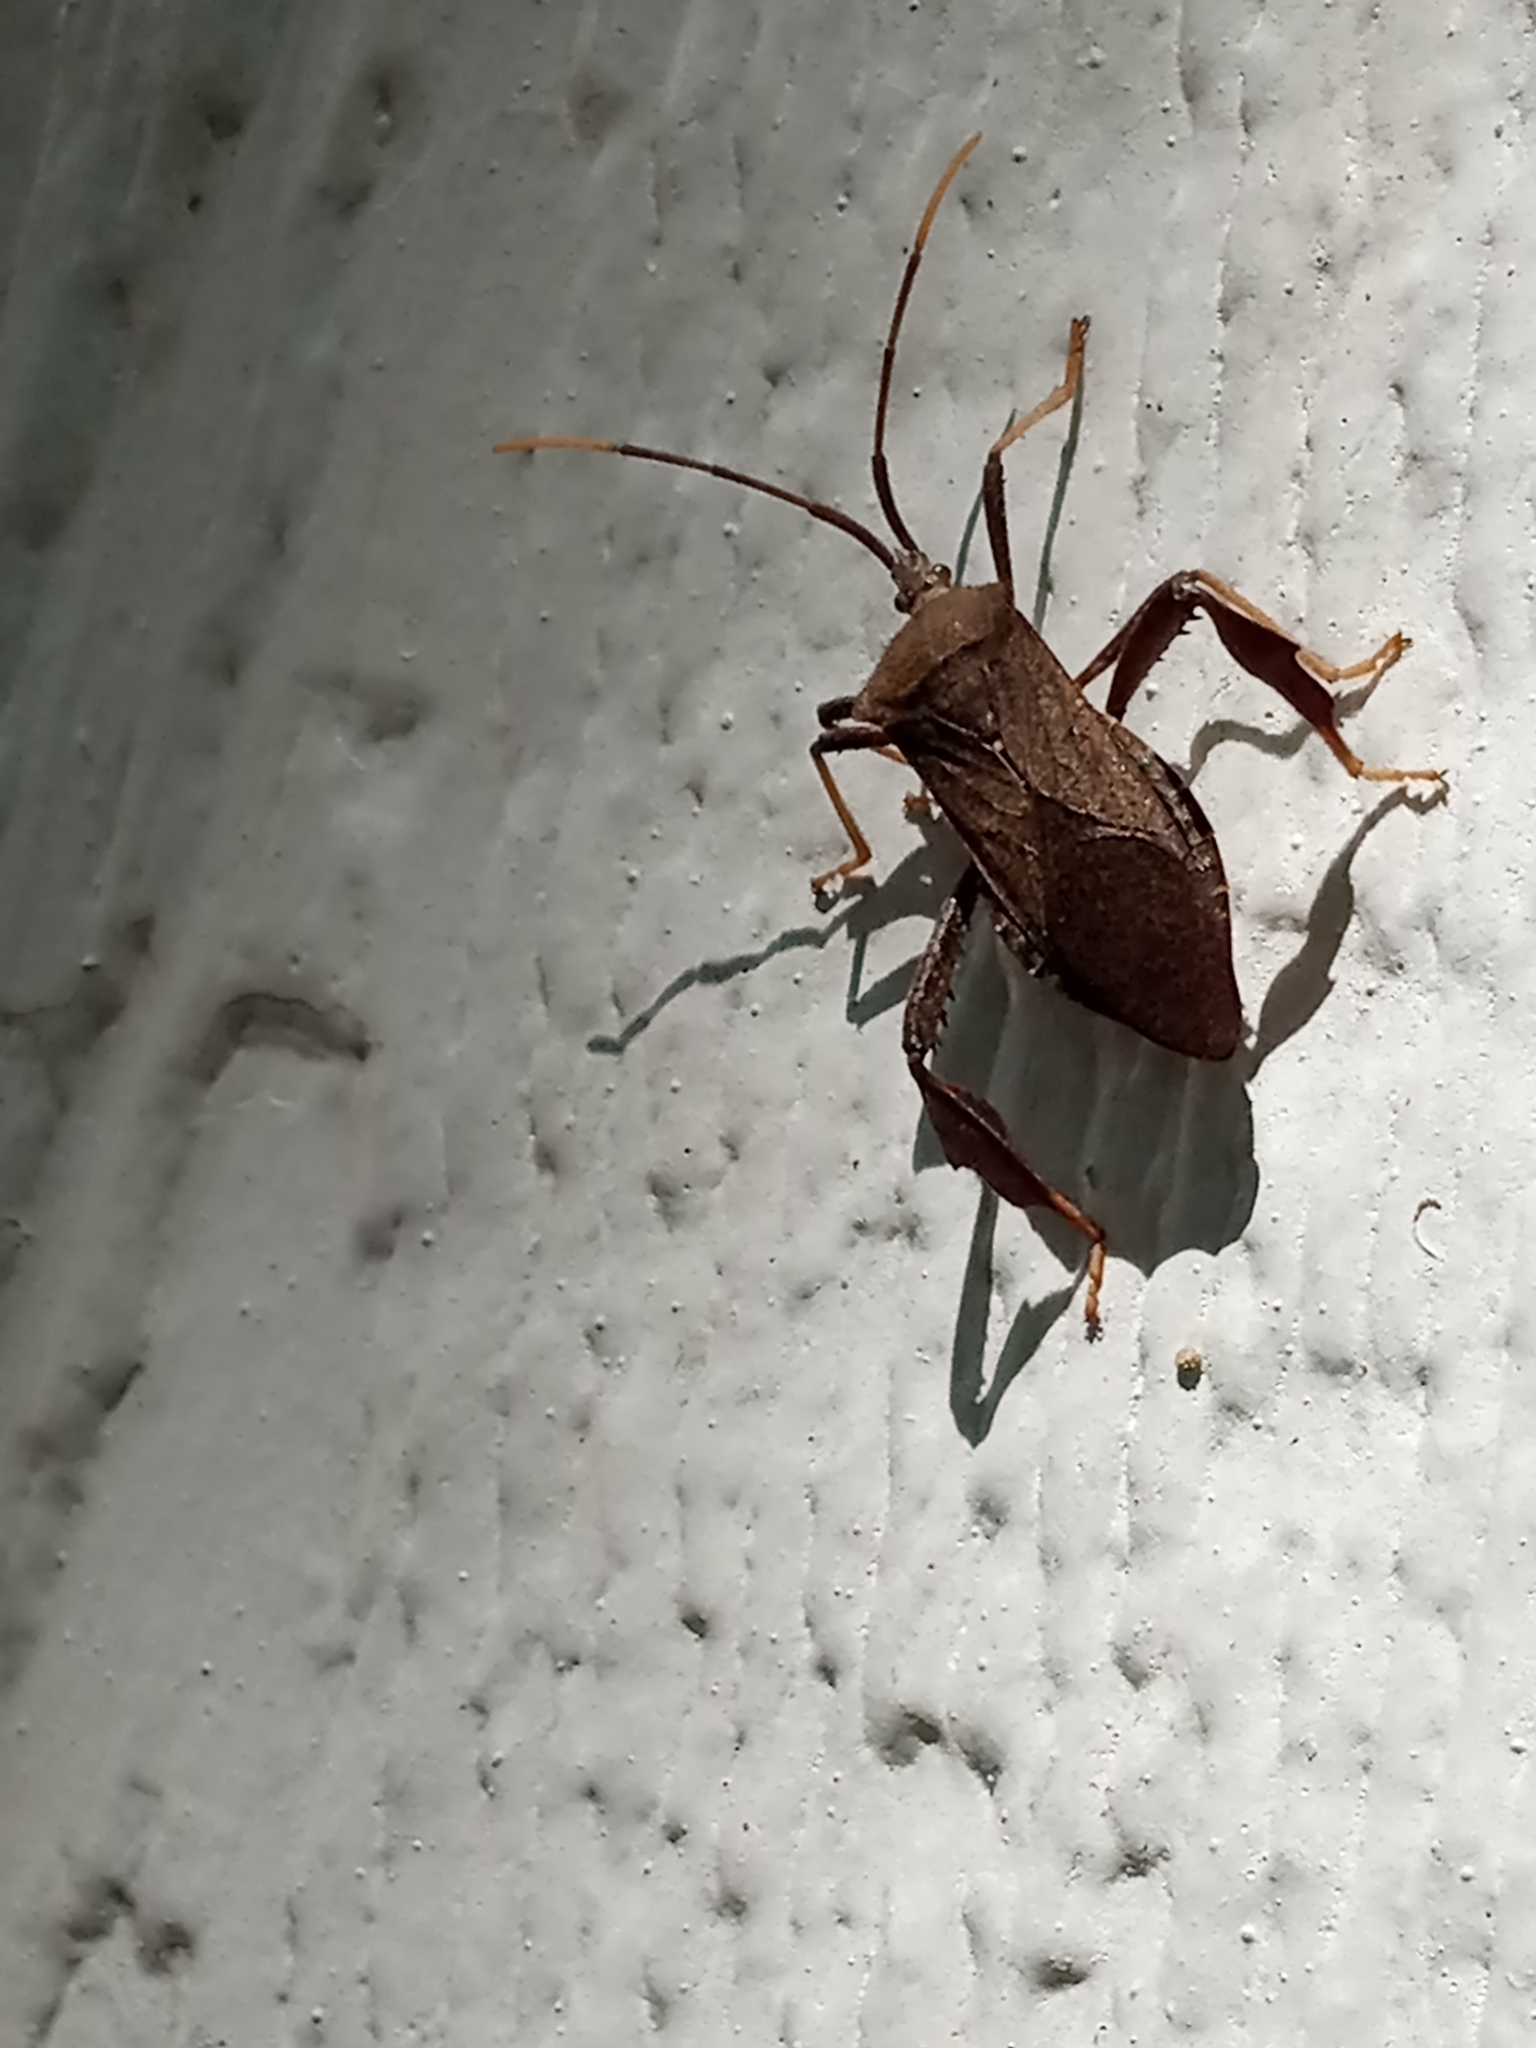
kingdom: Animalia
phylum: Arthropoda
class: Insecta
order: Hemiptera
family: Coreidae
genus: Acanthocephala
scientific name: Acanthocephala terminalis
